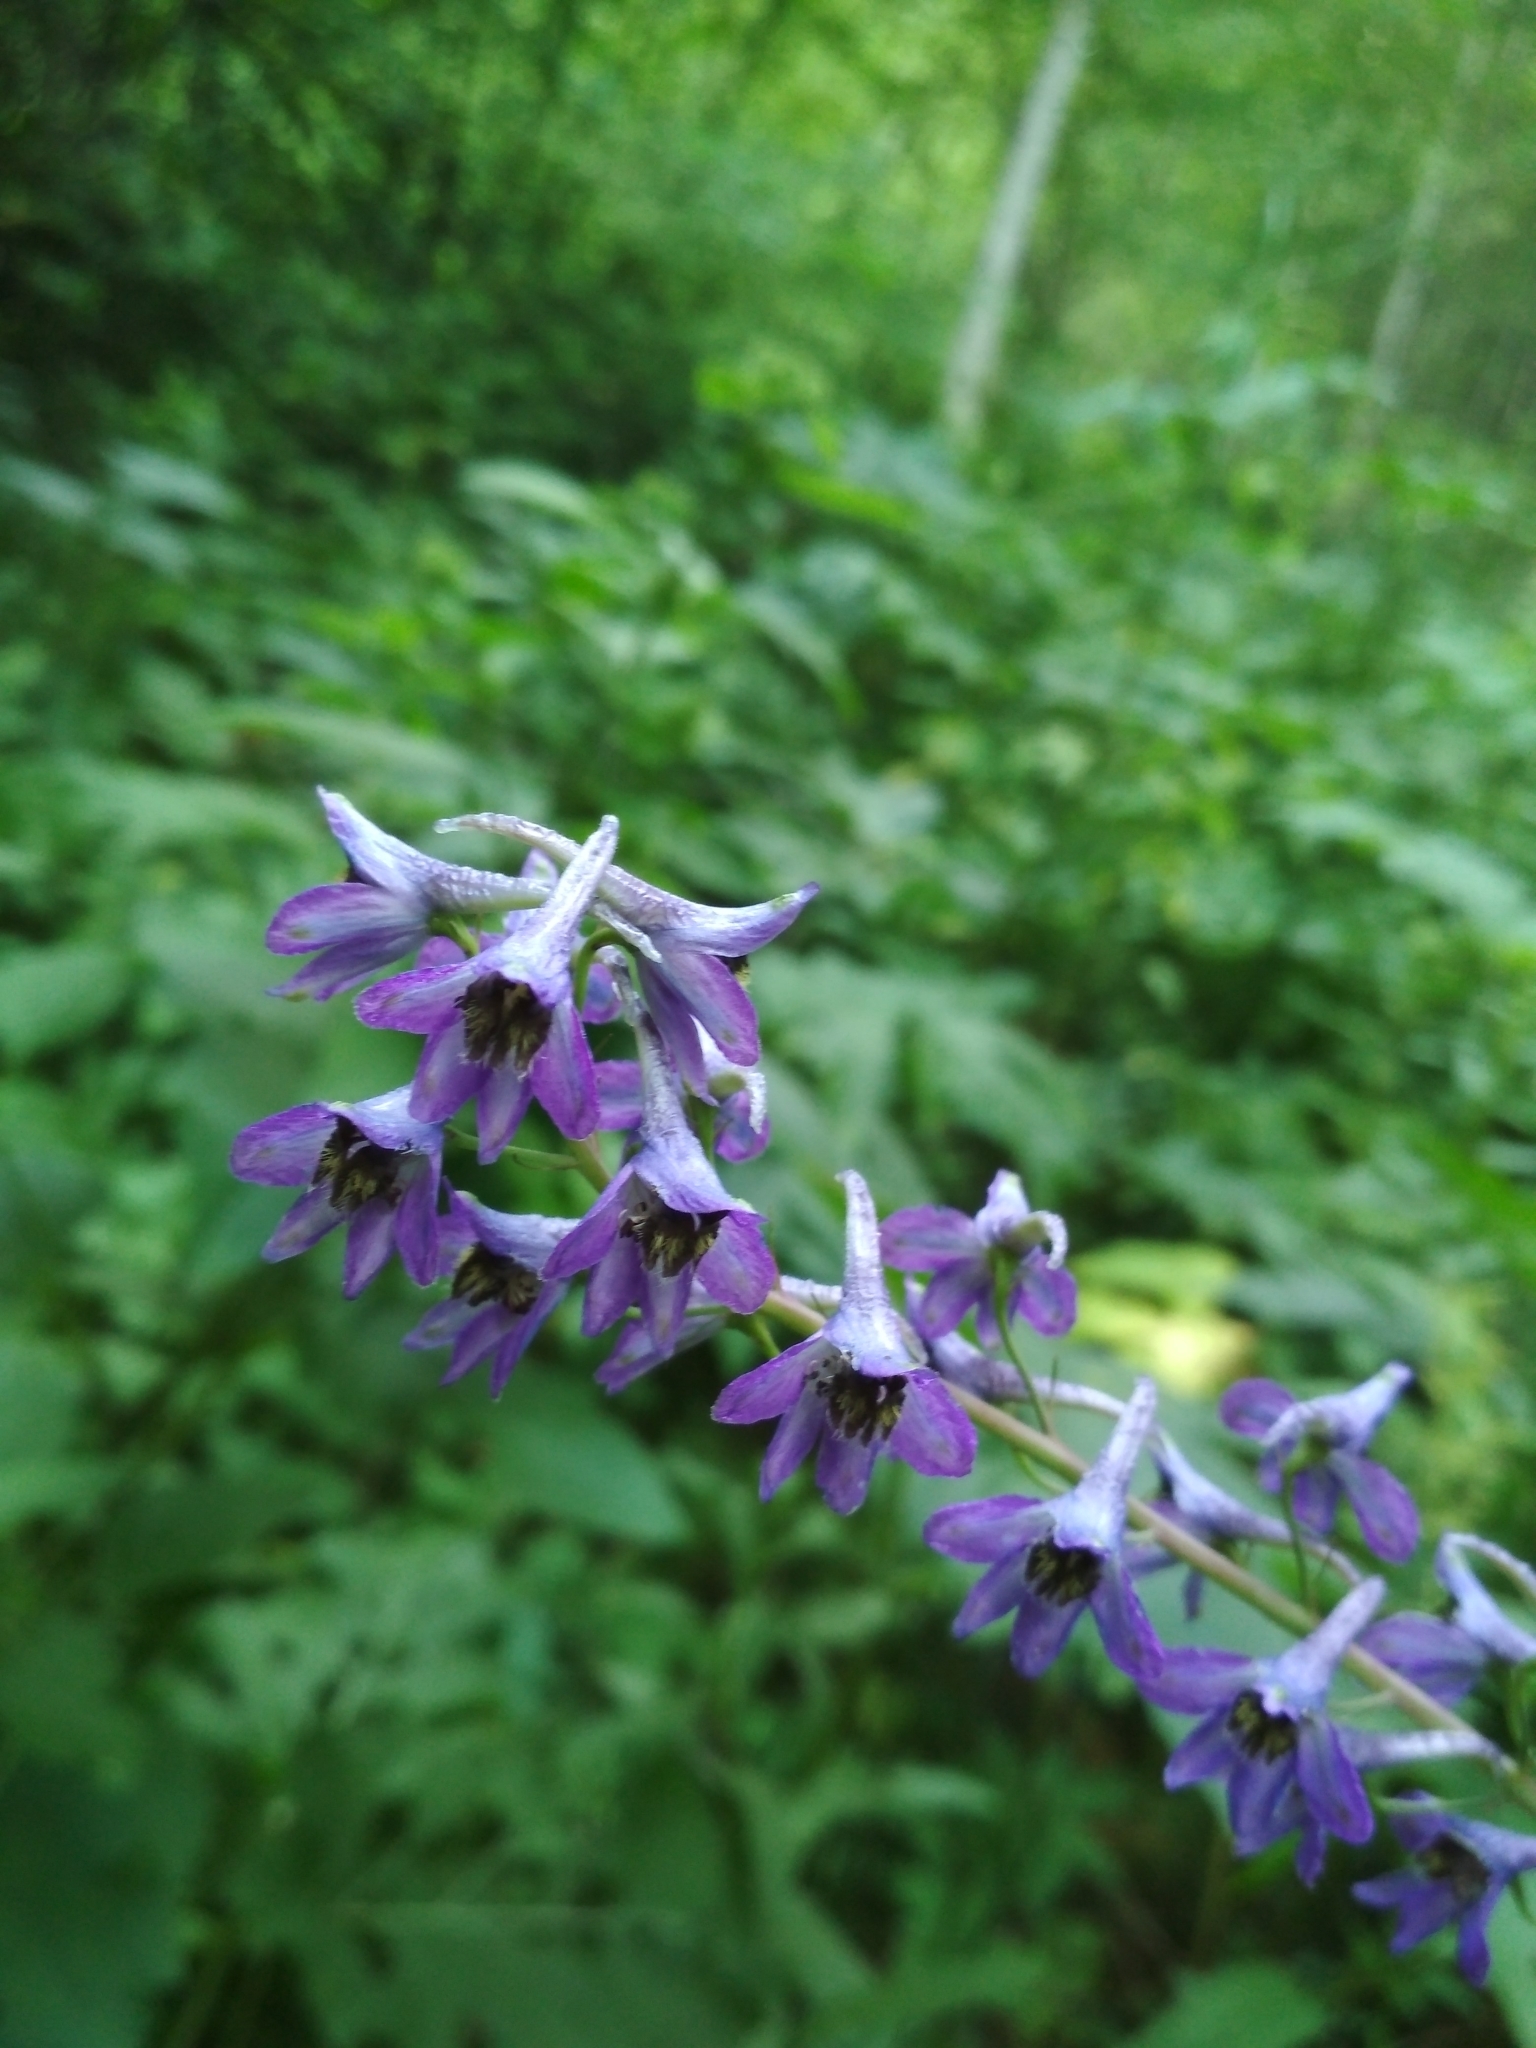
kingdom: Plantae
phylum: Tracheophyta
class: Magnoliopsida
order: Ranunculales
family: Ranunculaceae
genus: Delphinium
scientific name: Delphinium elatum
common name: Candle larkspur
